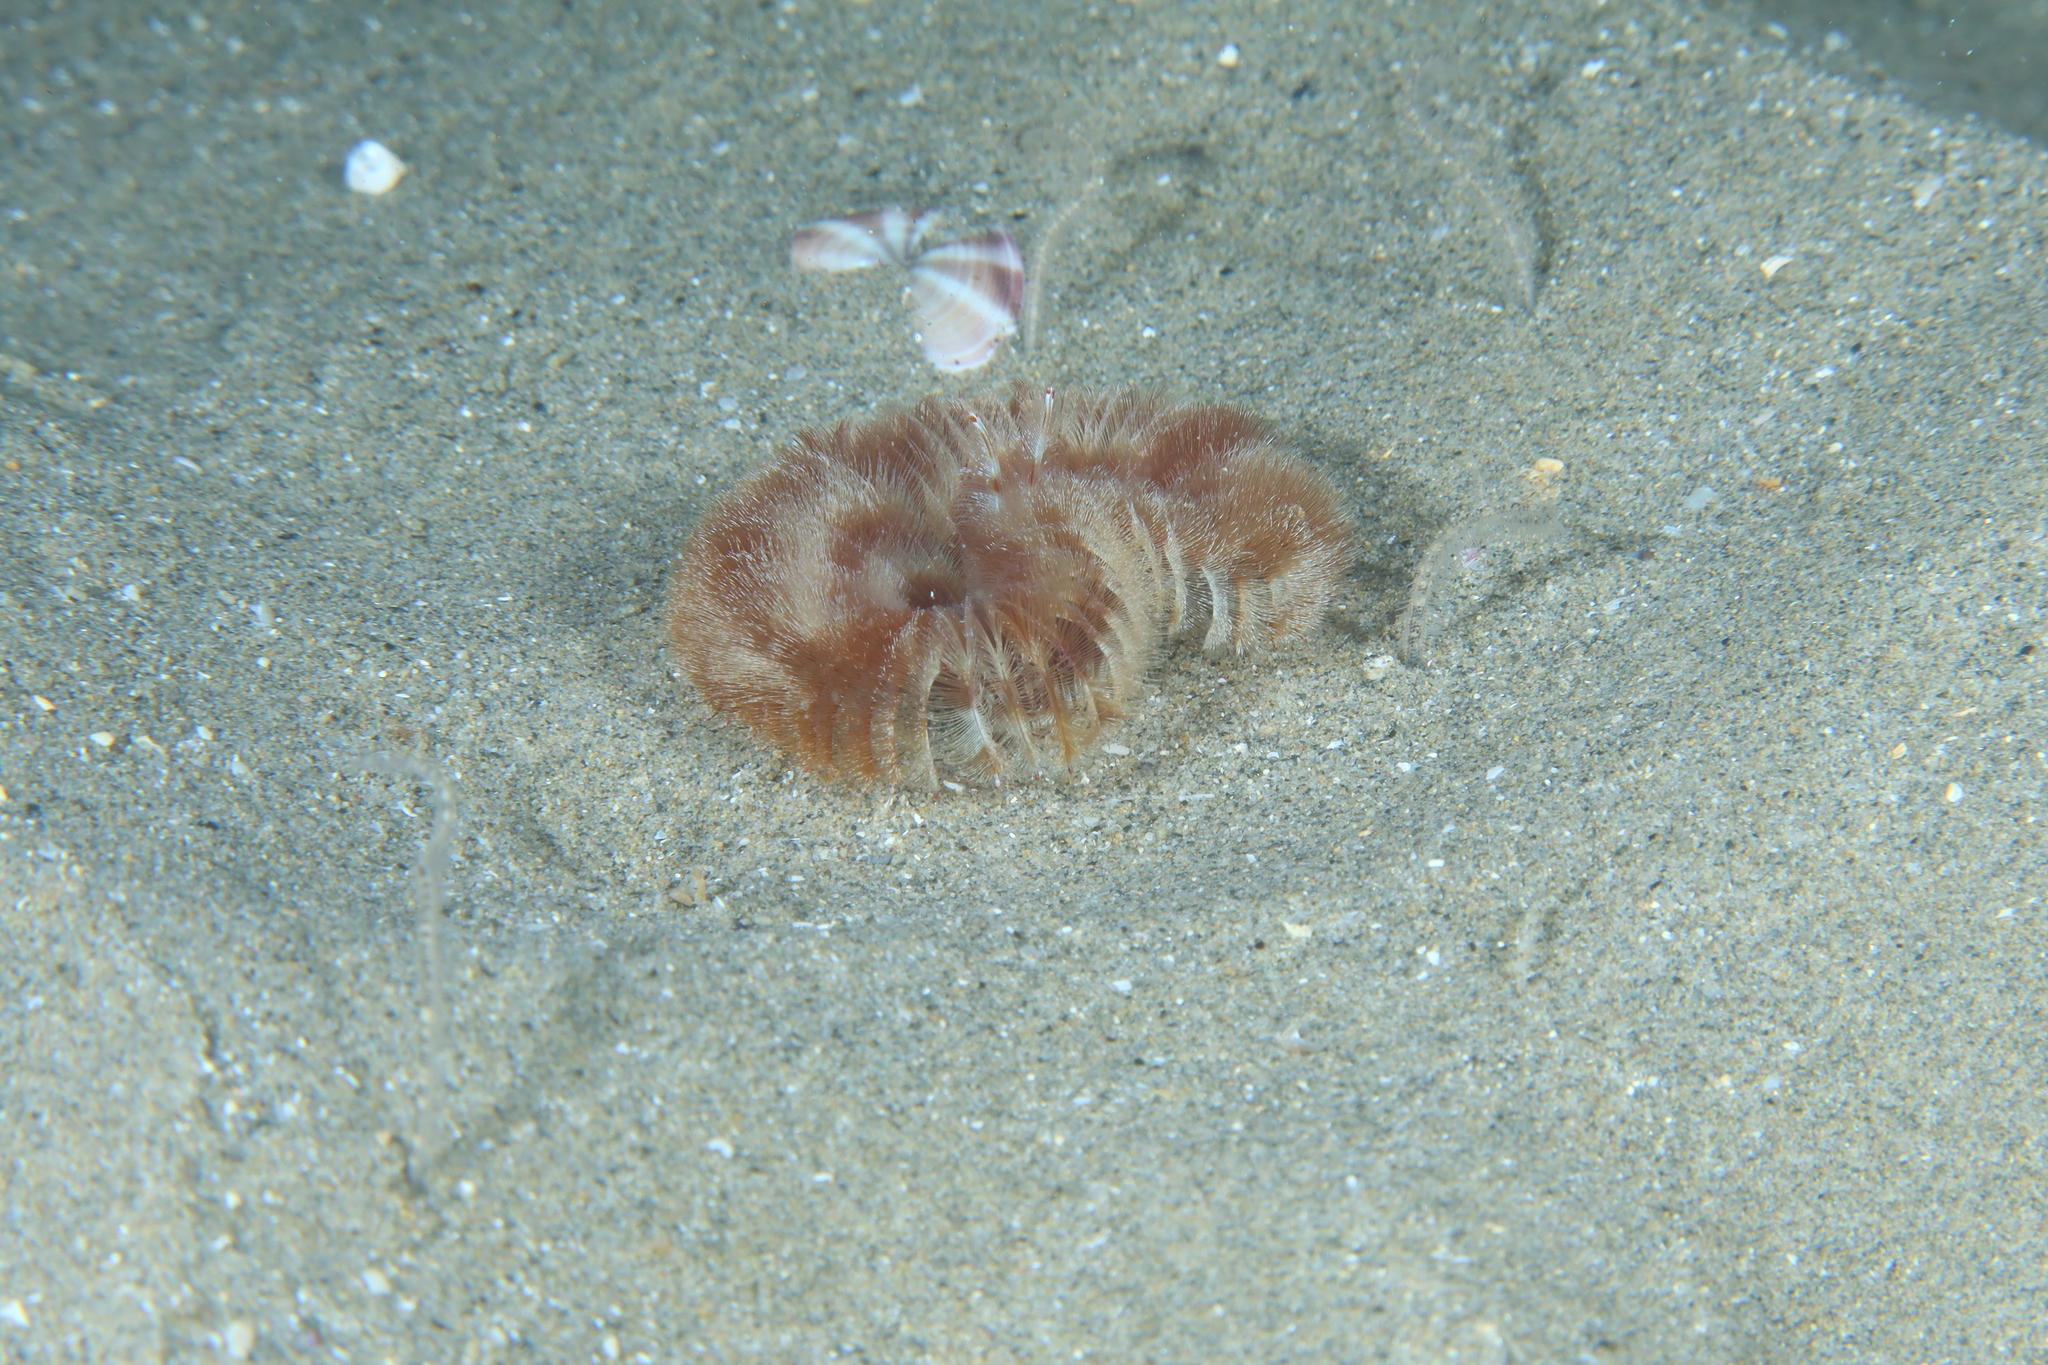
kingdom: Animalia
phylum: Annelida
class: Polychaeta
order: Sabellida
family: Sabellidae
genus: Acromegalomma
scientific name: Acromegalomma vesiculosum
